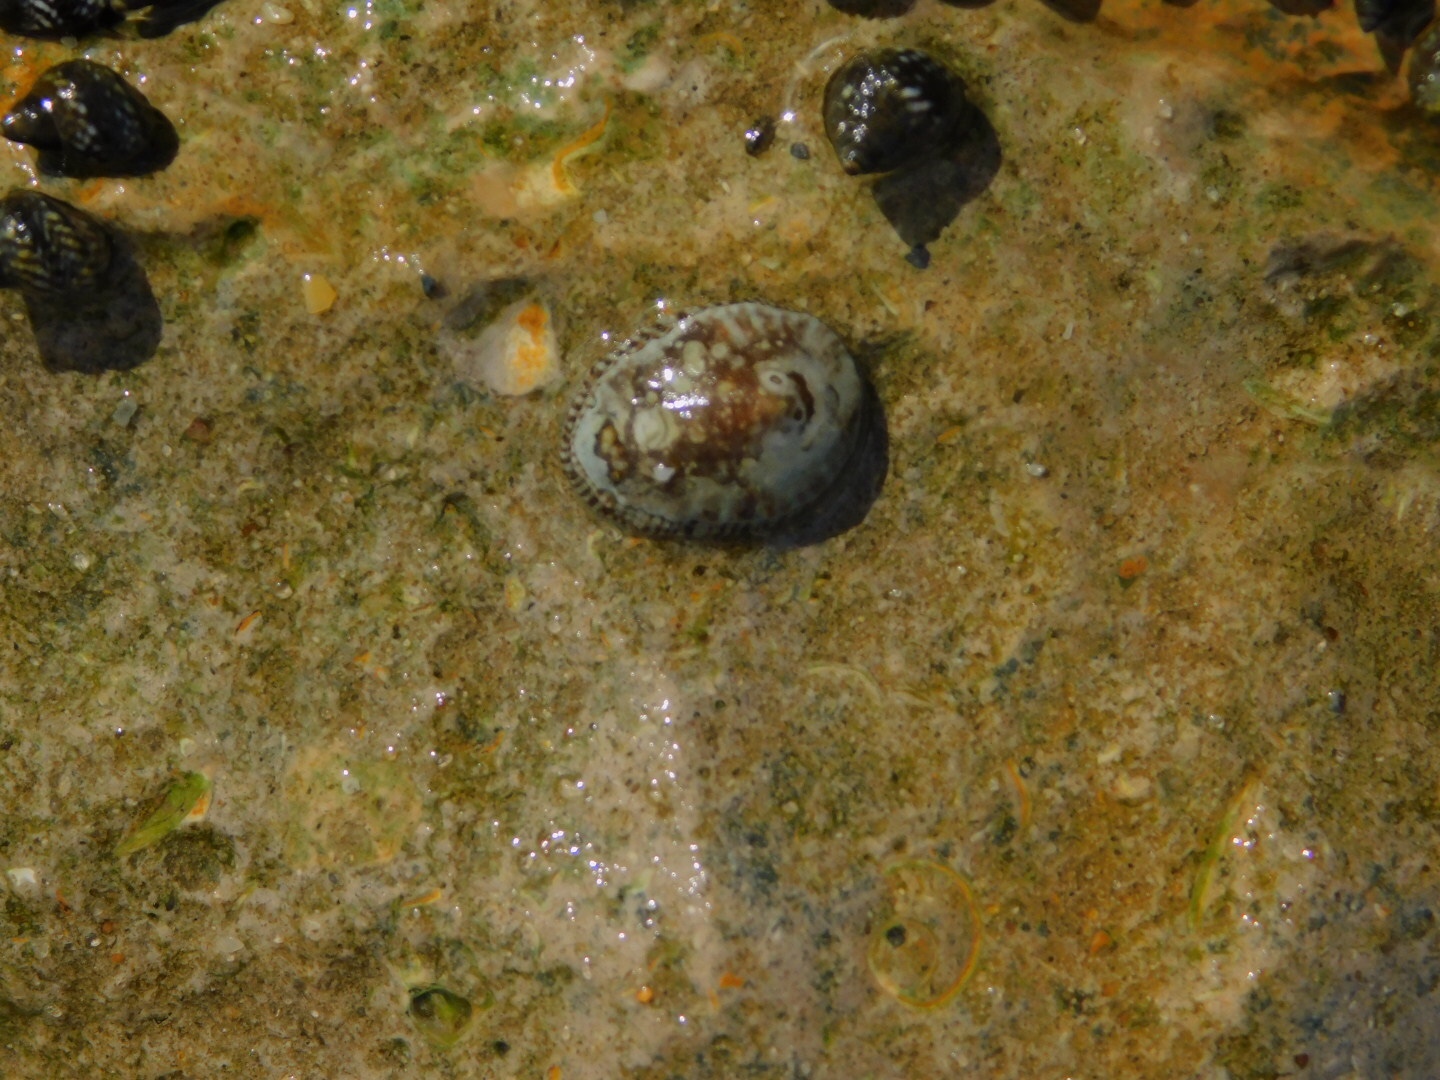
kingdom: Animalia
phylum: Mollusca
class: Gastropoda
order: Siphonariida
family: Siphonariidae
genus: Siphonaria
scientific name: Siphonaria naufragum
